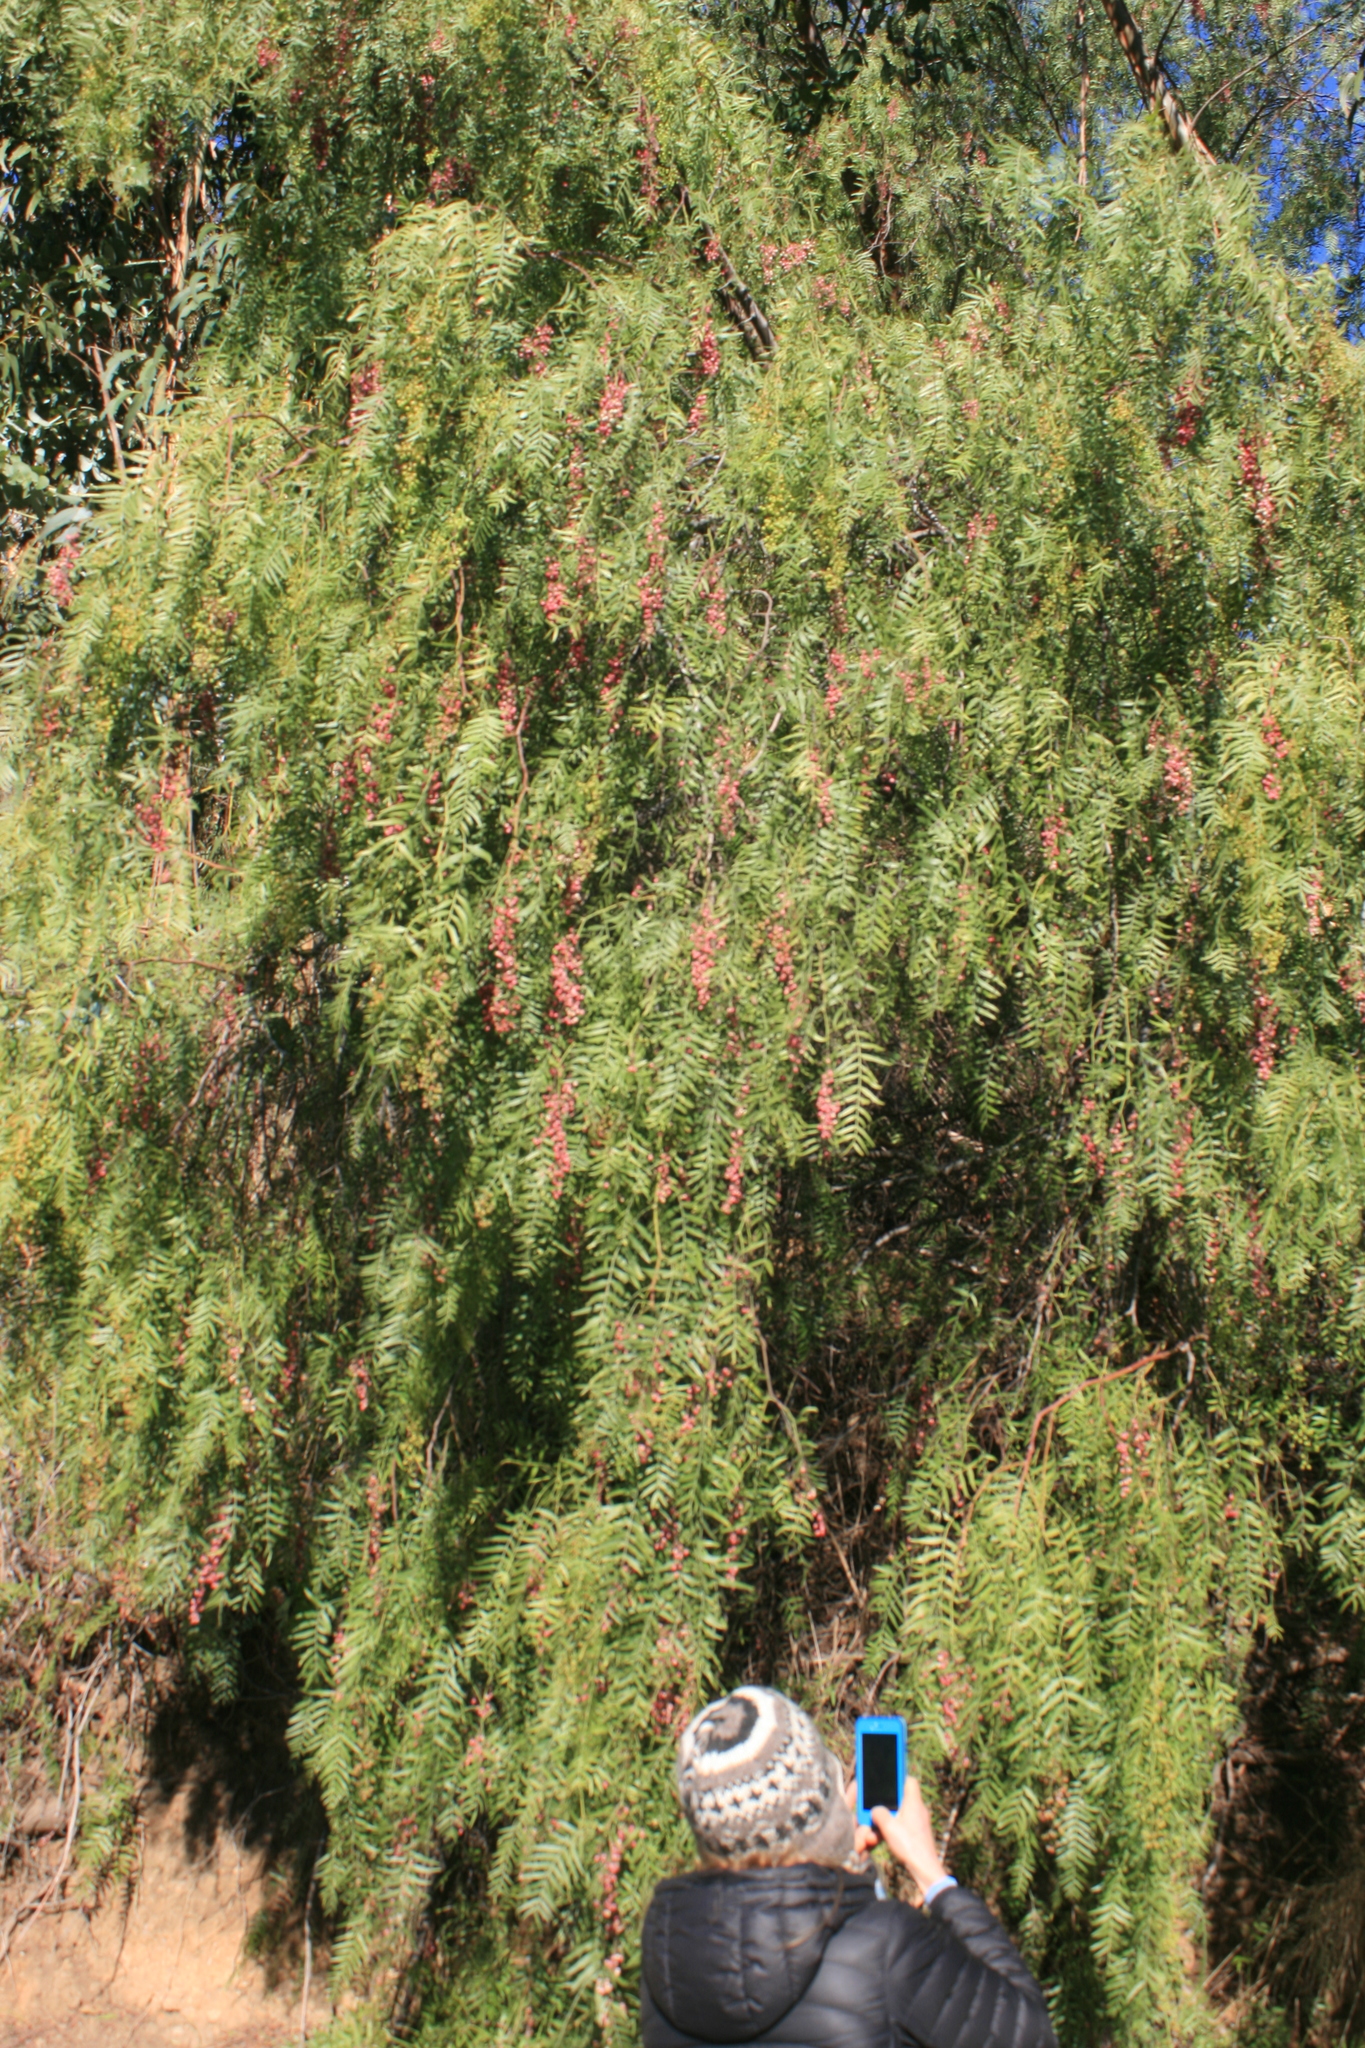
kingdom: Plantae
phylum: Tracheophyta
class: Magnoliopsida
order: Sapindales
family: Anacardiaceae
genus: Schinus
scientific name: Schinus molle
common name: Peruvian peppertree
